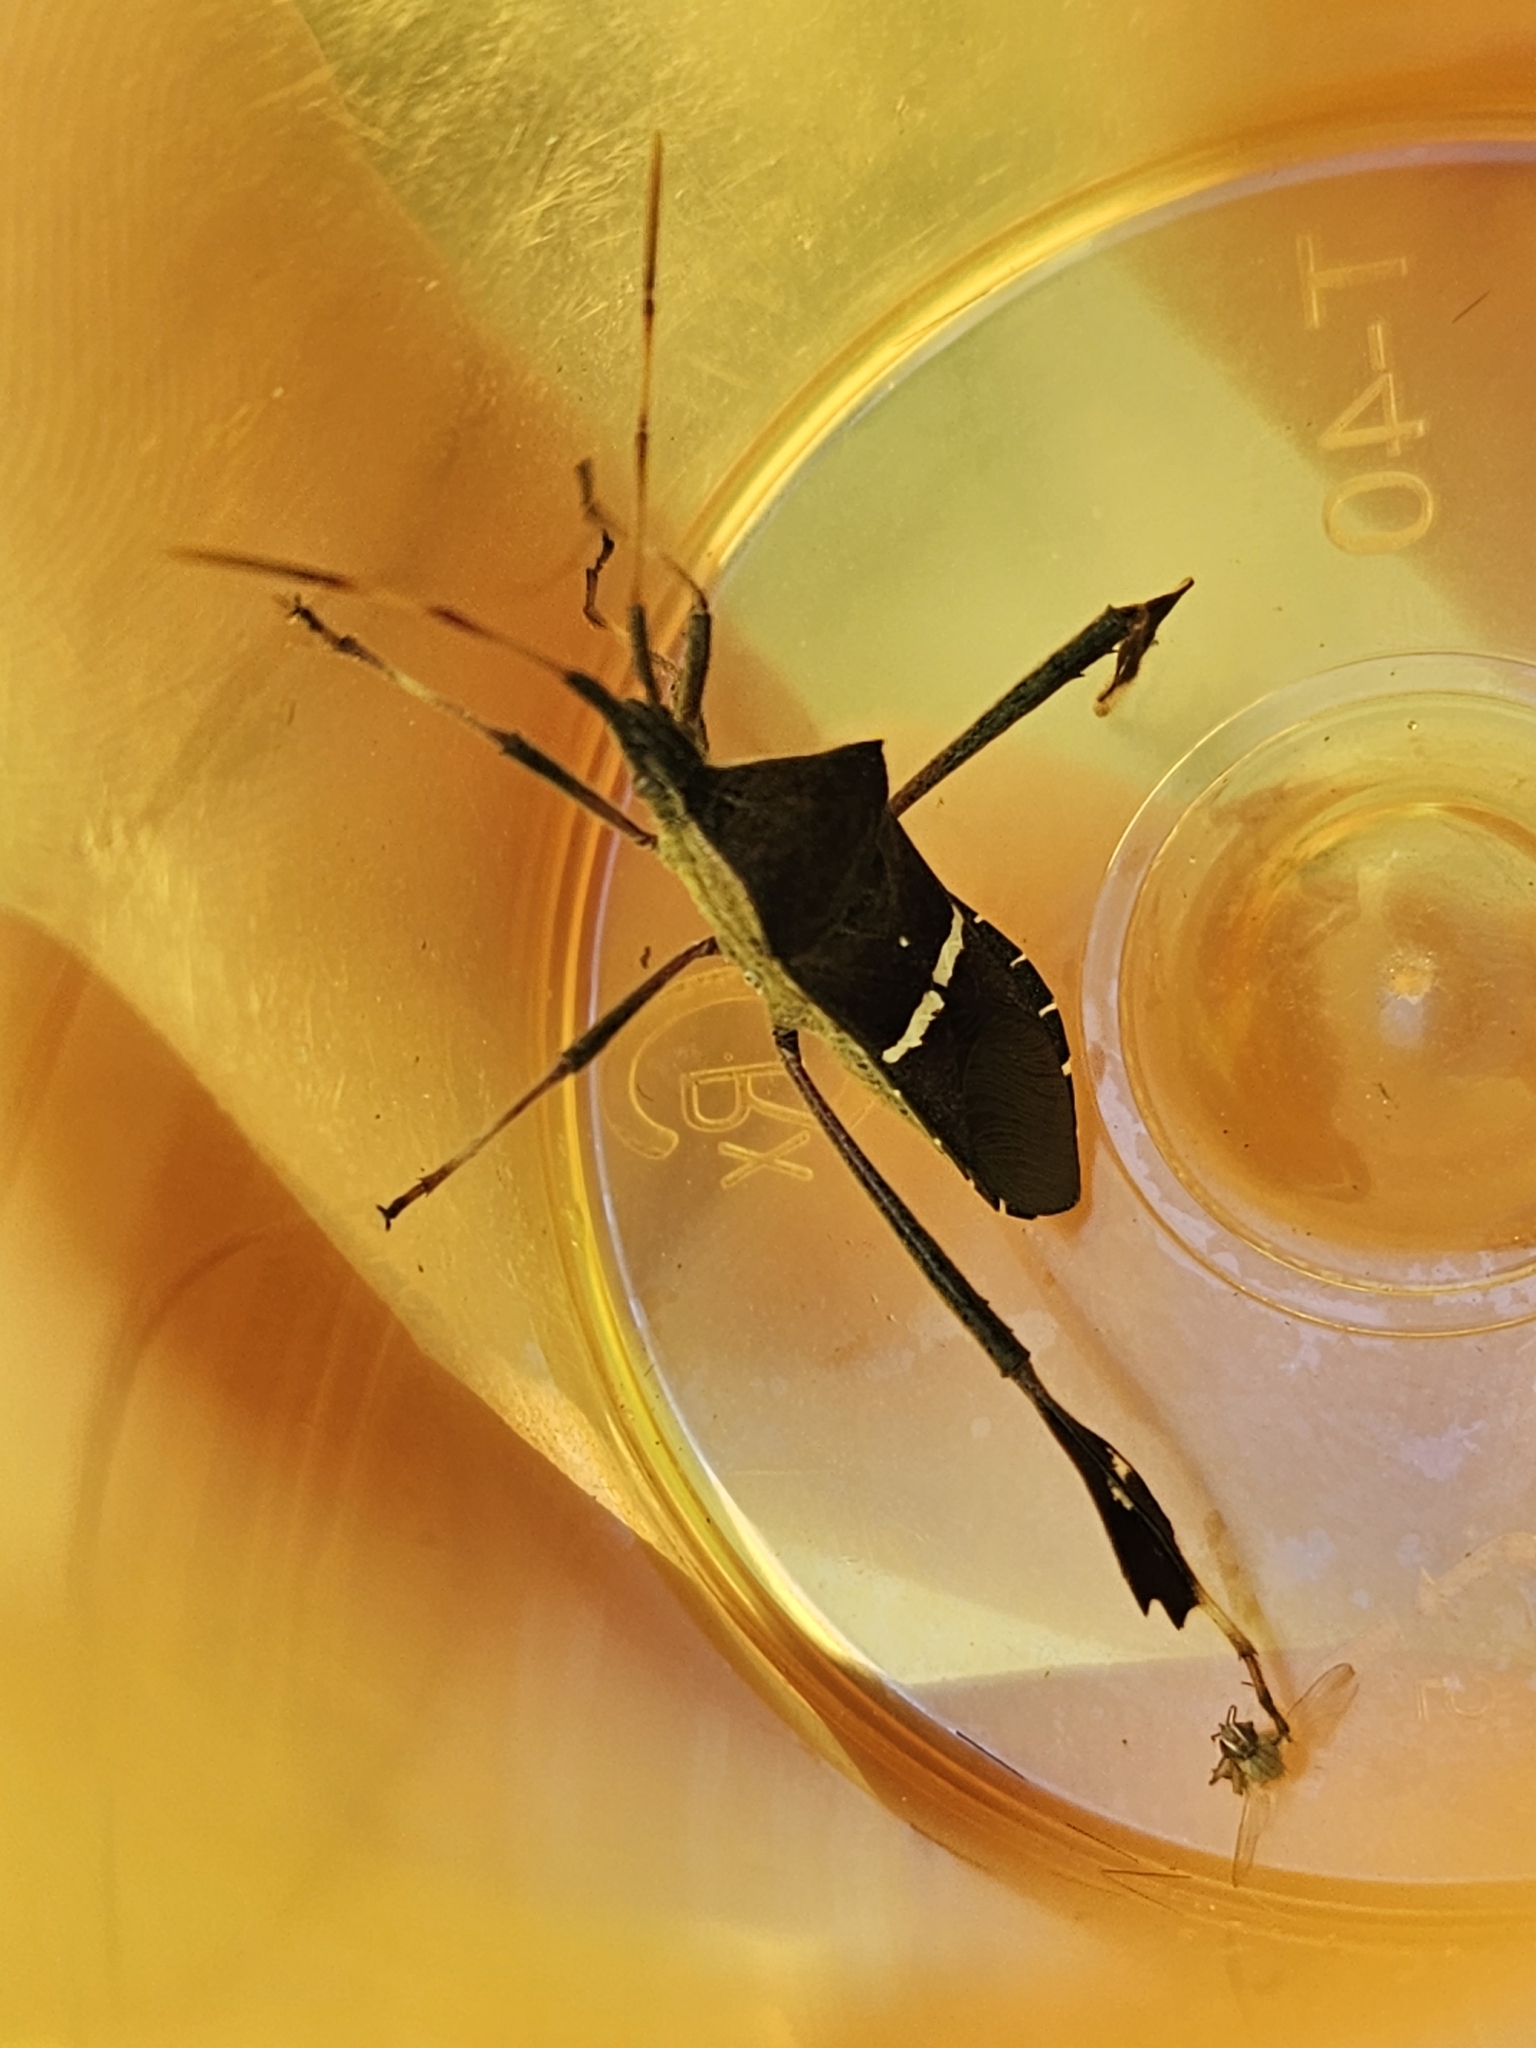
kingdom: Animalia
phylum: Arthropoda
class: Insecta
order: Hemiptera
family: Coreidae
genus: Leptoglossus
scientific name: Leptoglossus phyllopus
